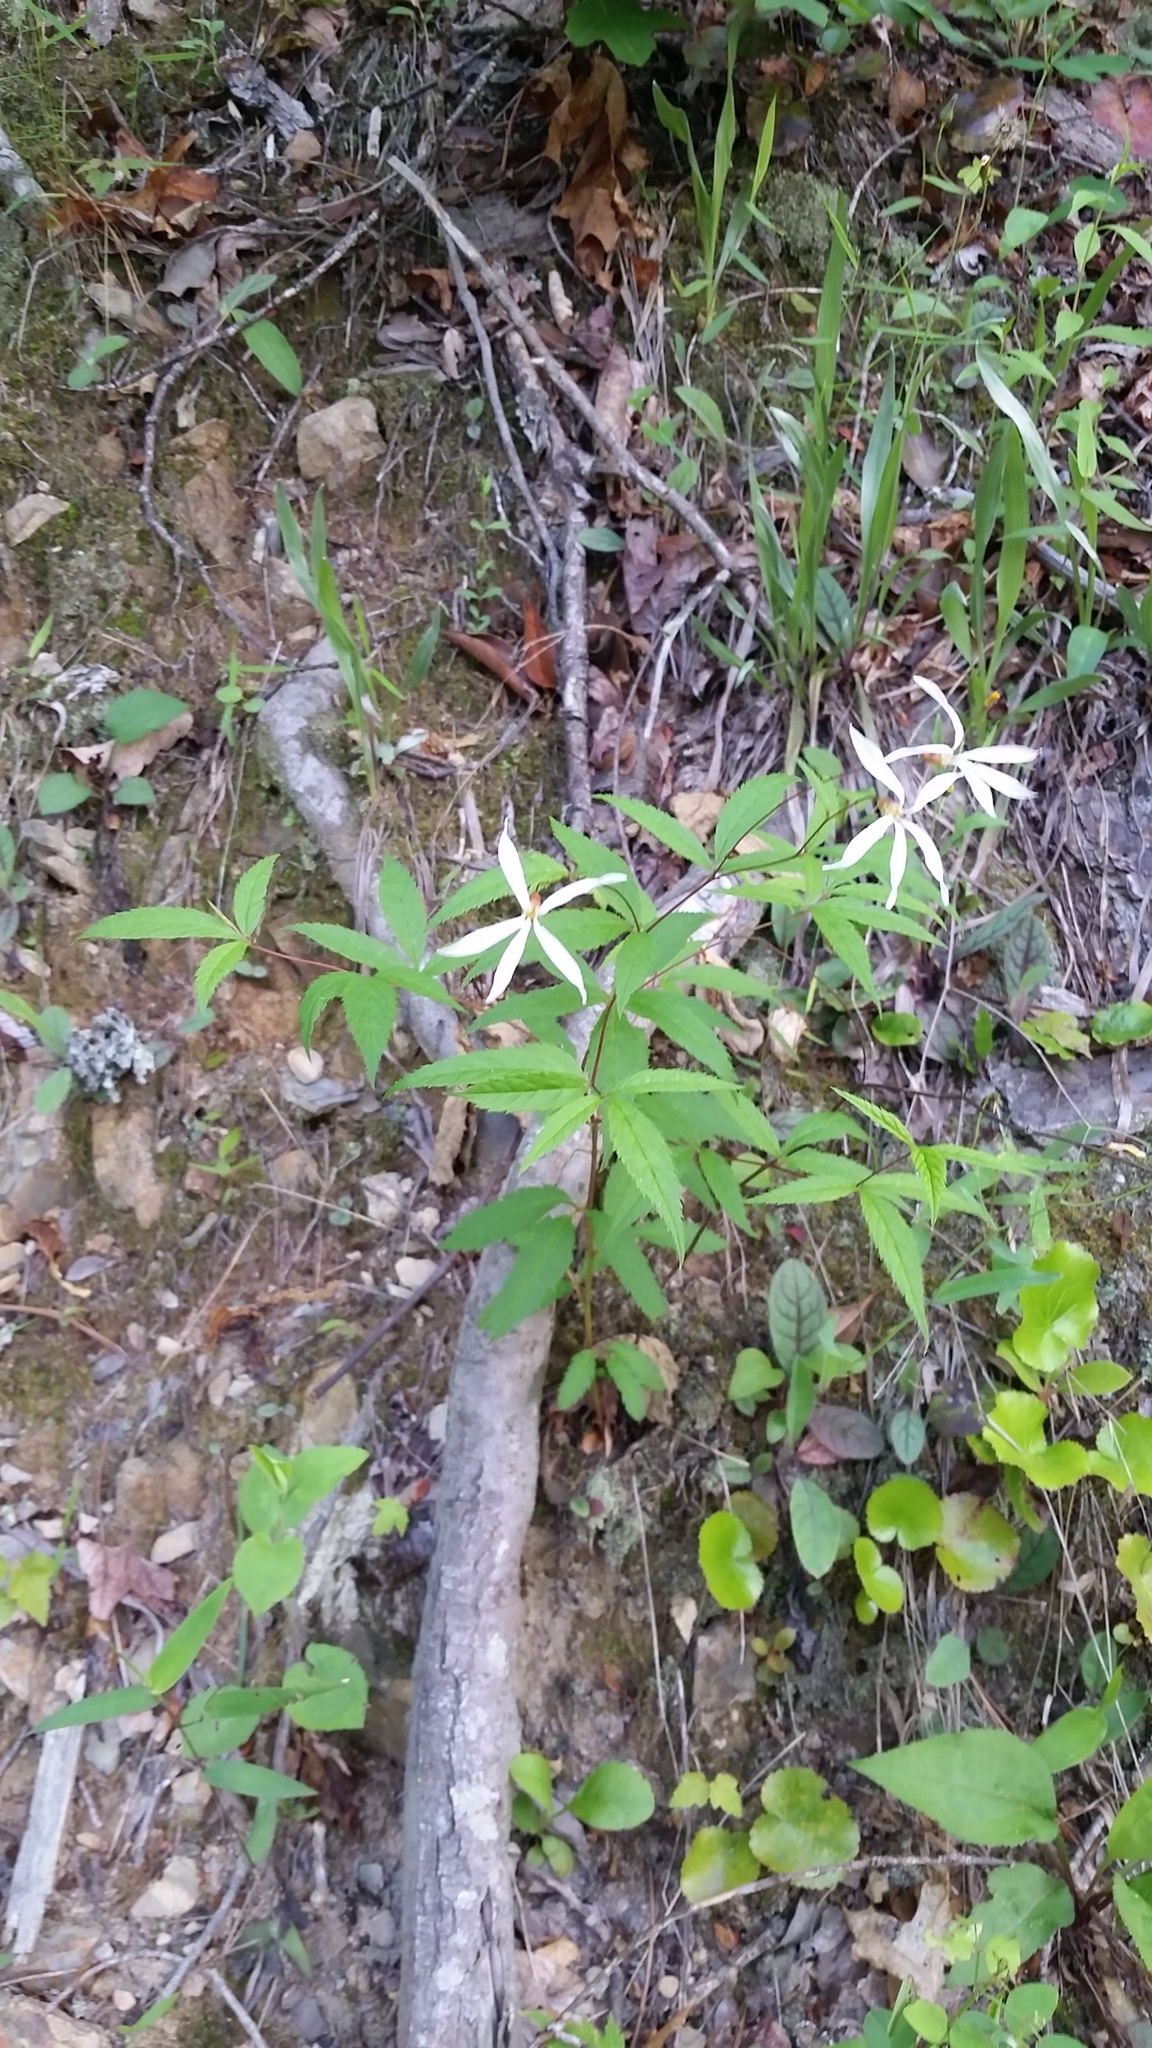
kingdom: Plantae
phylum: Tracheophyta
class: Magnoliopsida
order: Rosales
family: Rosaceae
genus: Gillenia
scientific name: Gillenia trifoliata
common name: Bowman's-root
